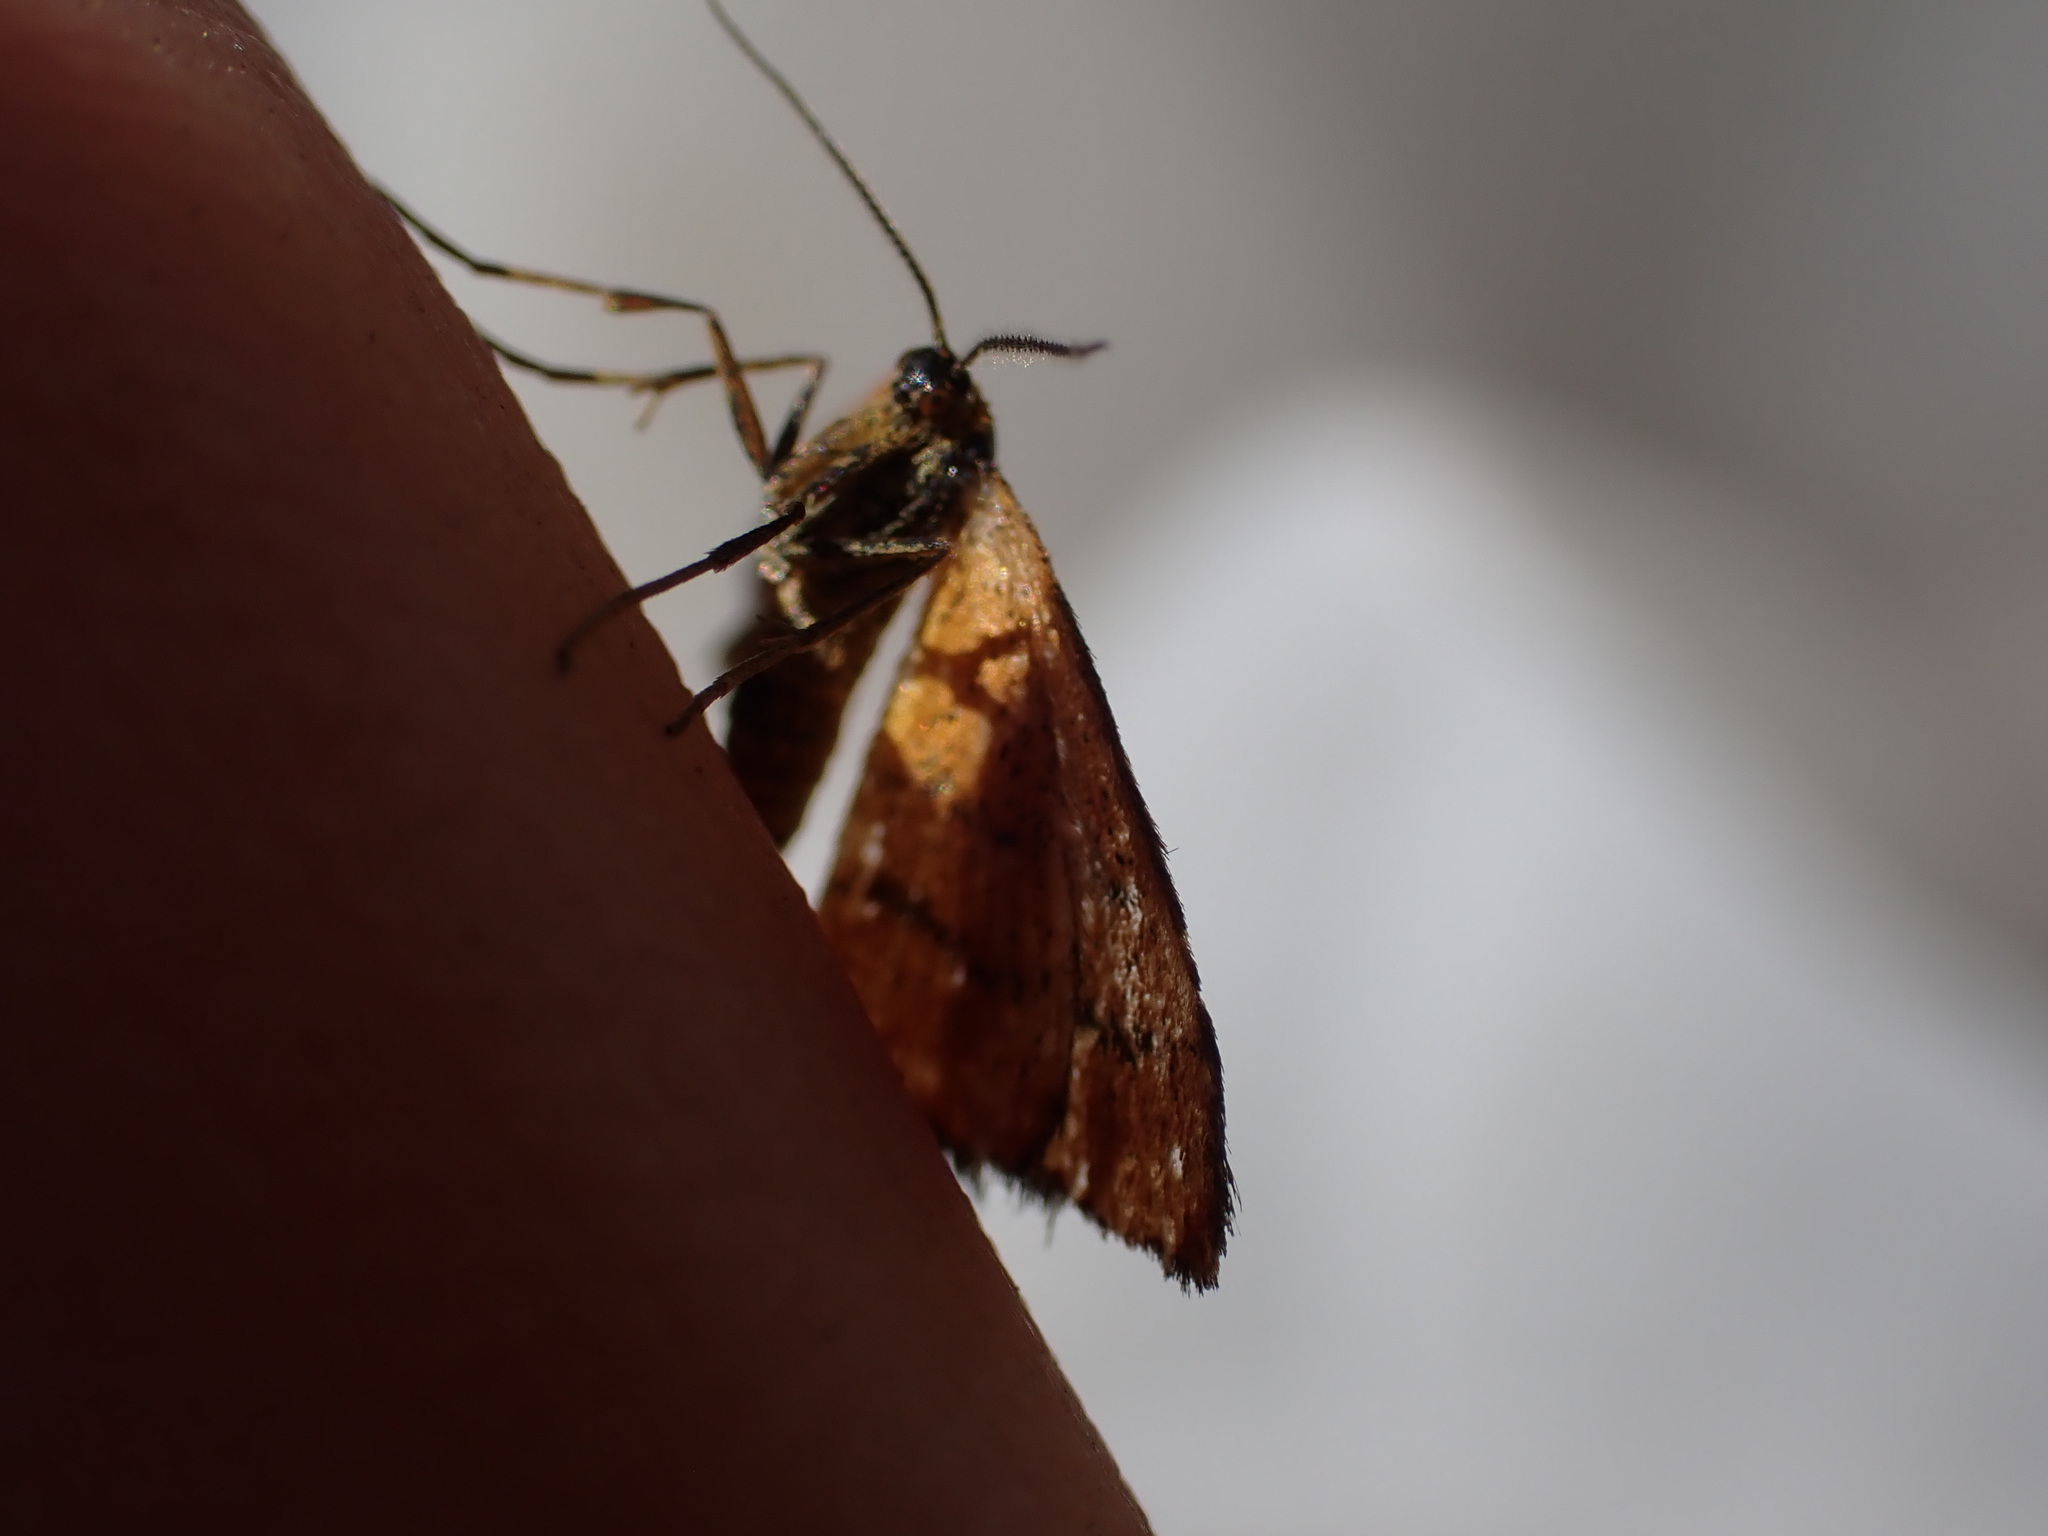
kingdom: Animalia
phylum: Arthropoda
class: Insecta
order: Lepidoptera
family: Geometridae
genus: Idaea
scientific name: Idaea flaveolaria
